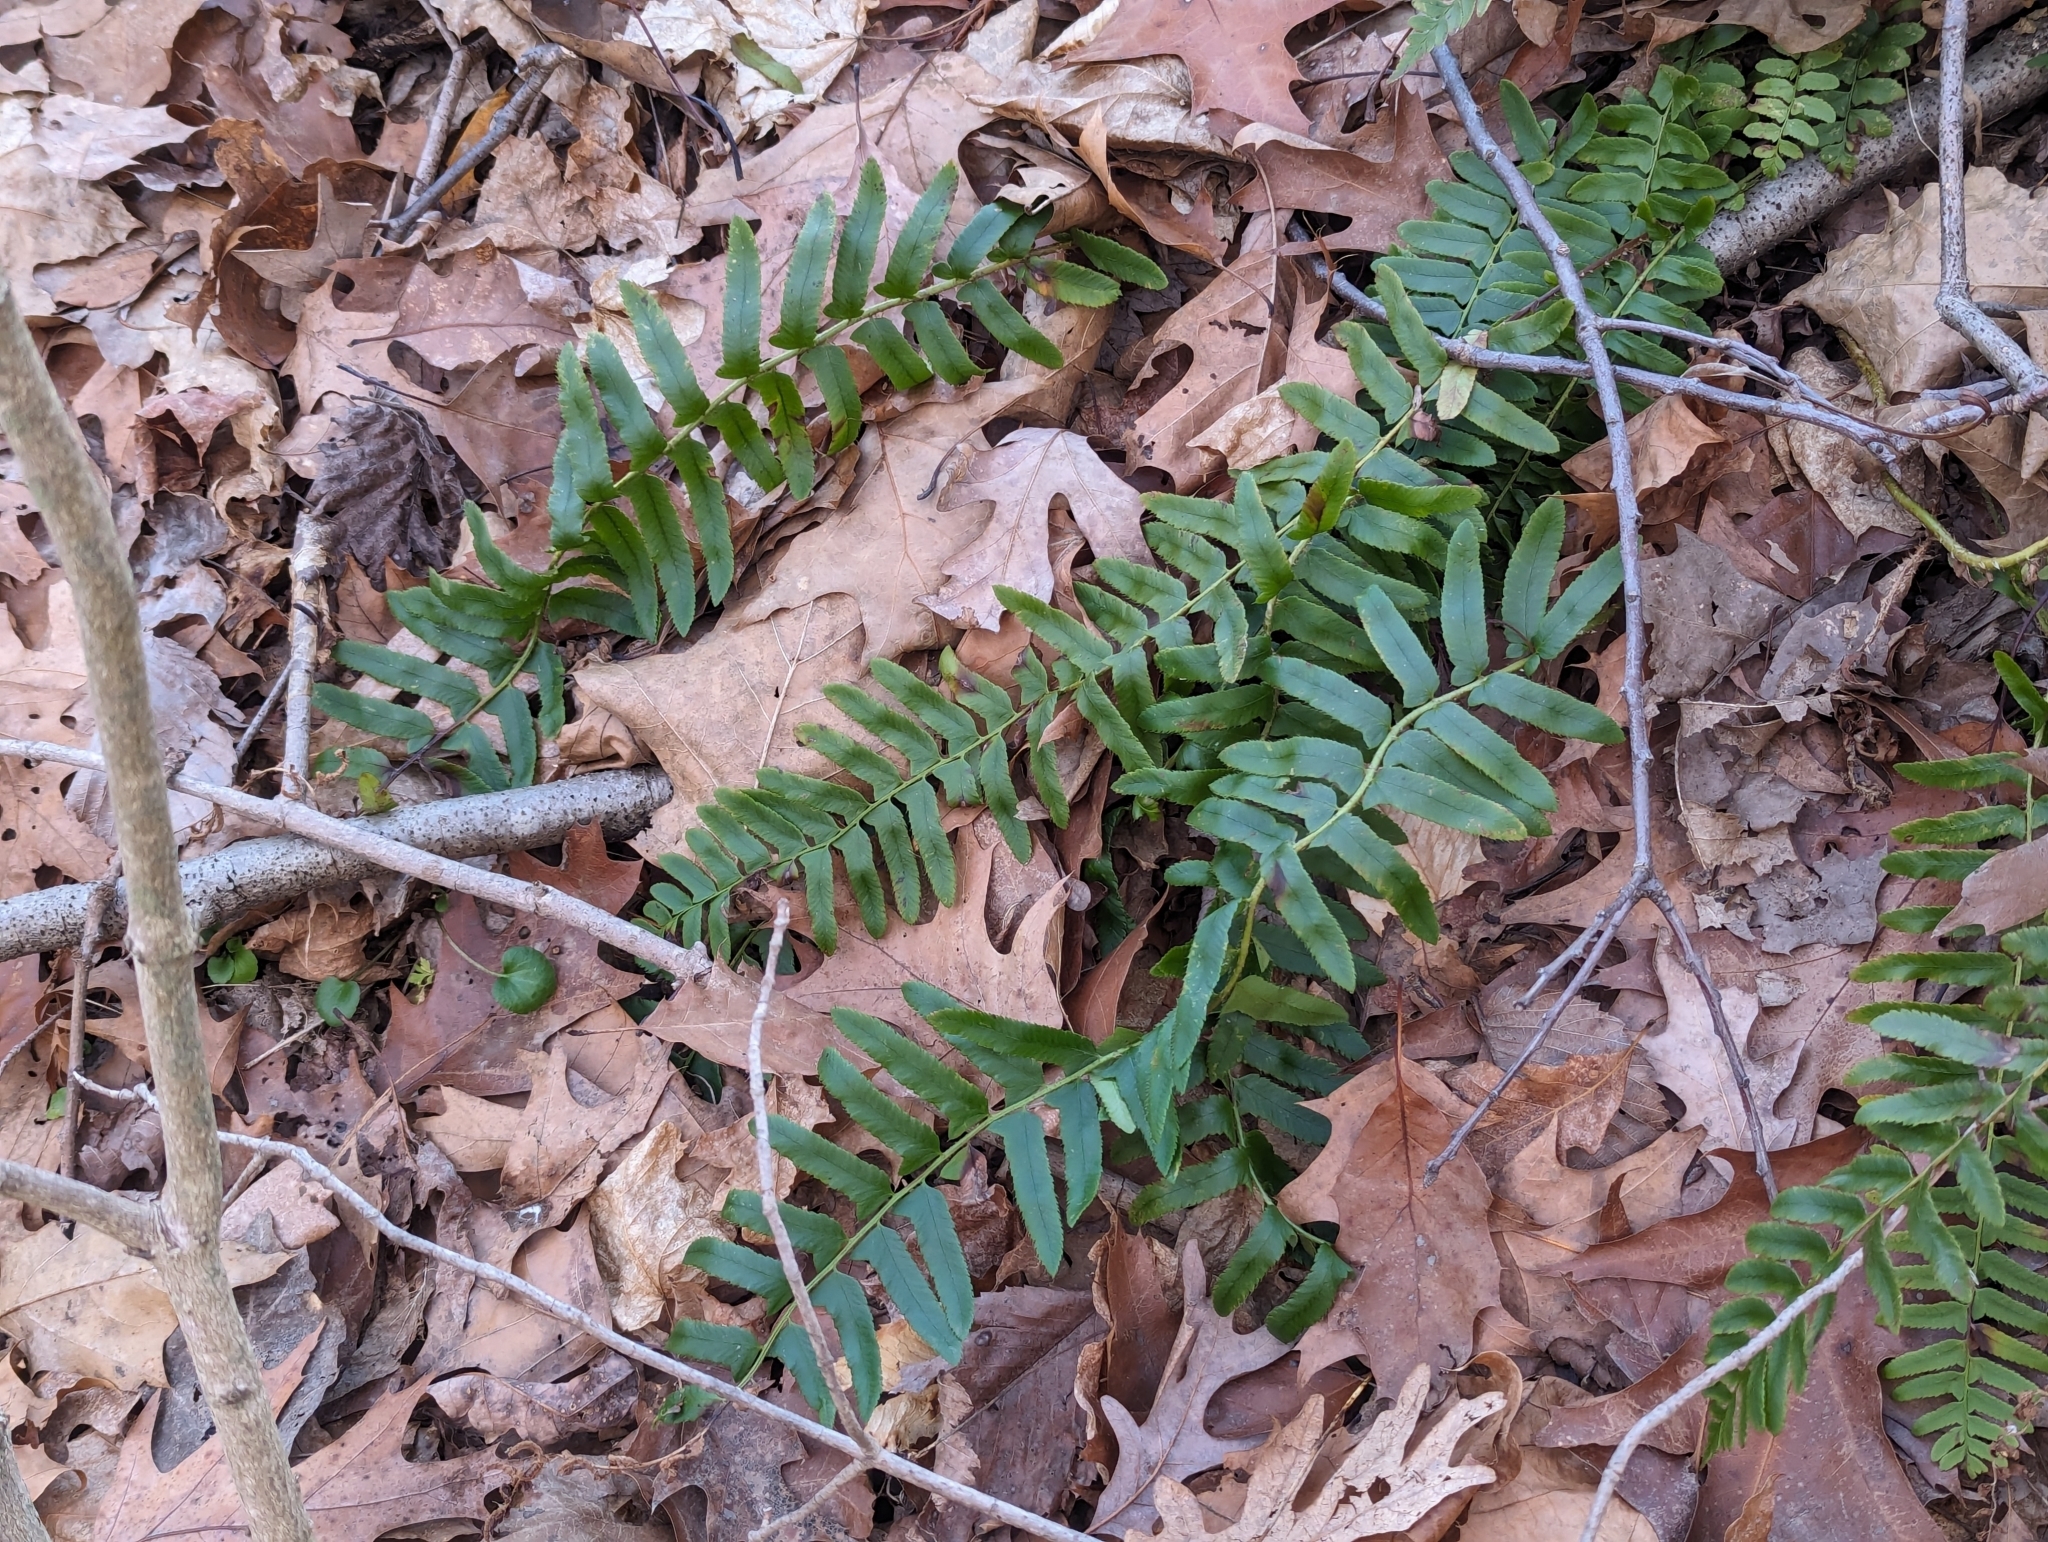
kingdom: Plantae
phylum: Tracheophyta
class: Polypodiopsida
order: Polypodiales
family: Dryopteridaceae
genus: Polystichum
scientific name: Polystichum acrostichoides
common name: Christmas fern
